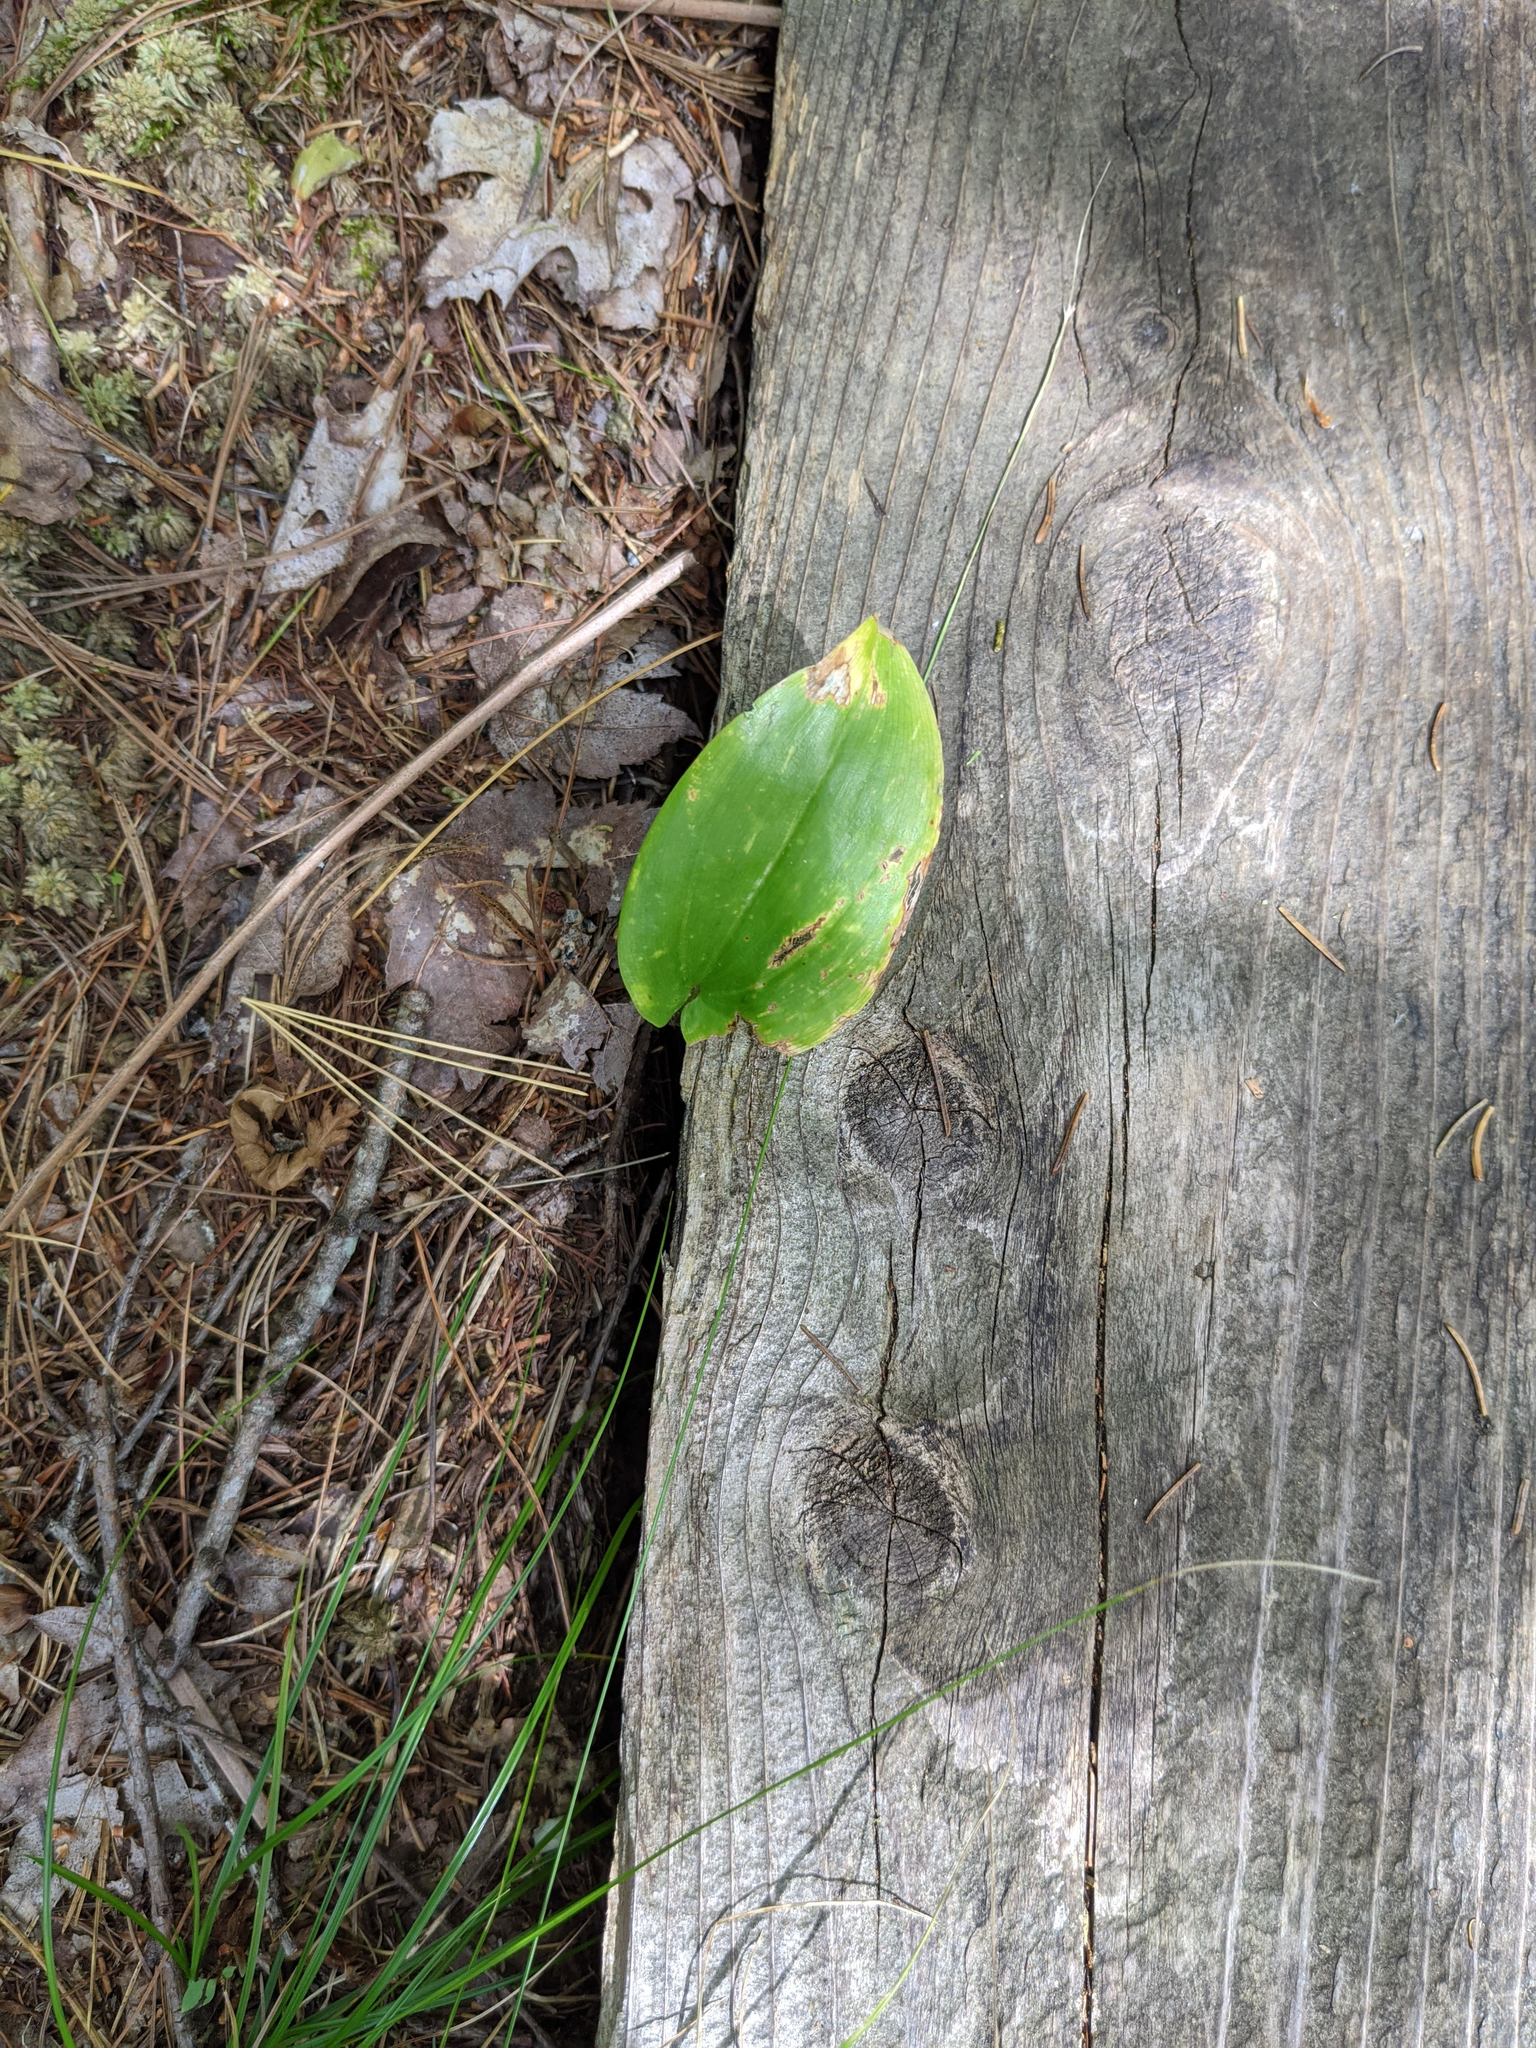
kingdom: Plantae
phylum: Tracheophyta
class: Liliopsida
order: Asparagales
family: Asparagaceae
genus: Maianthemum
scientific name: Maianthemum canadense
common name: False lily-of-the-valley
